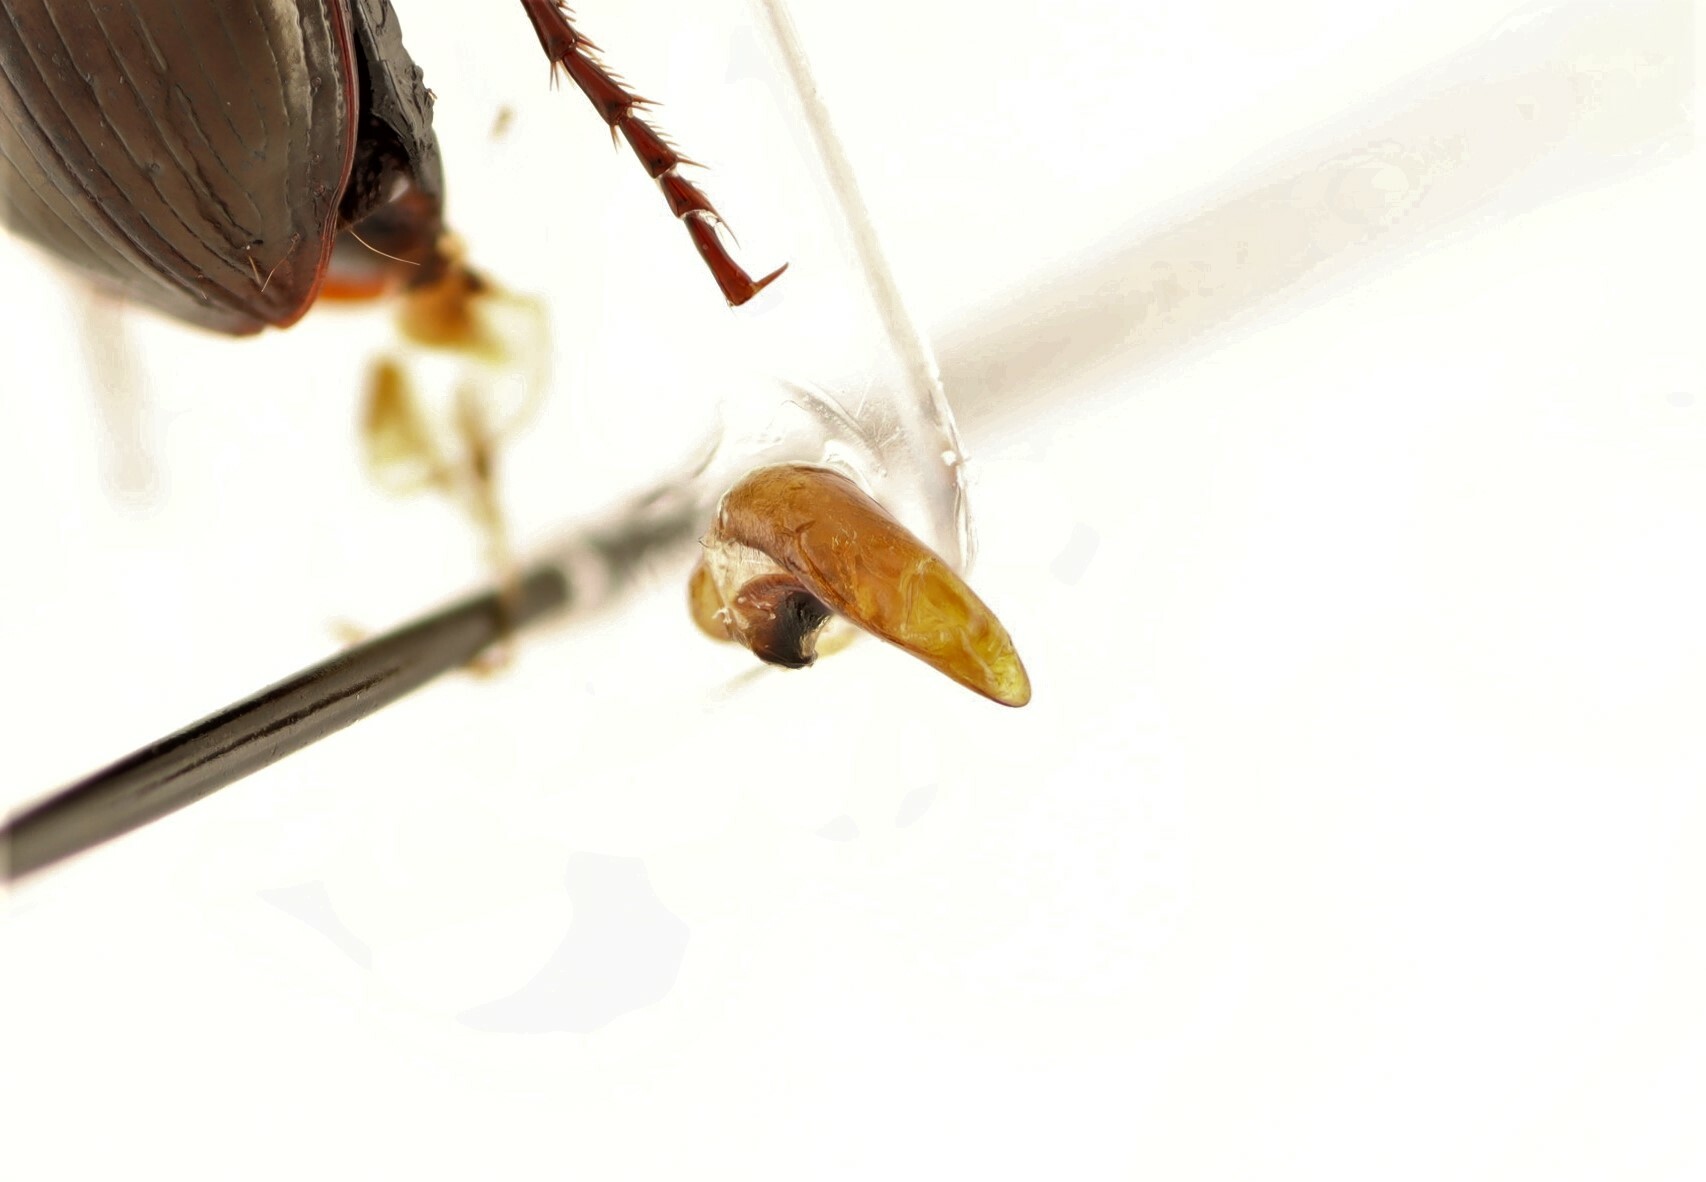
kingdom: Animalia
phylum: Arthropoda
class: Insecta
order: Coleoptera
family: Carabidae
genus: Pterostichus
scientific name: Pterostichus pensylvanicus
